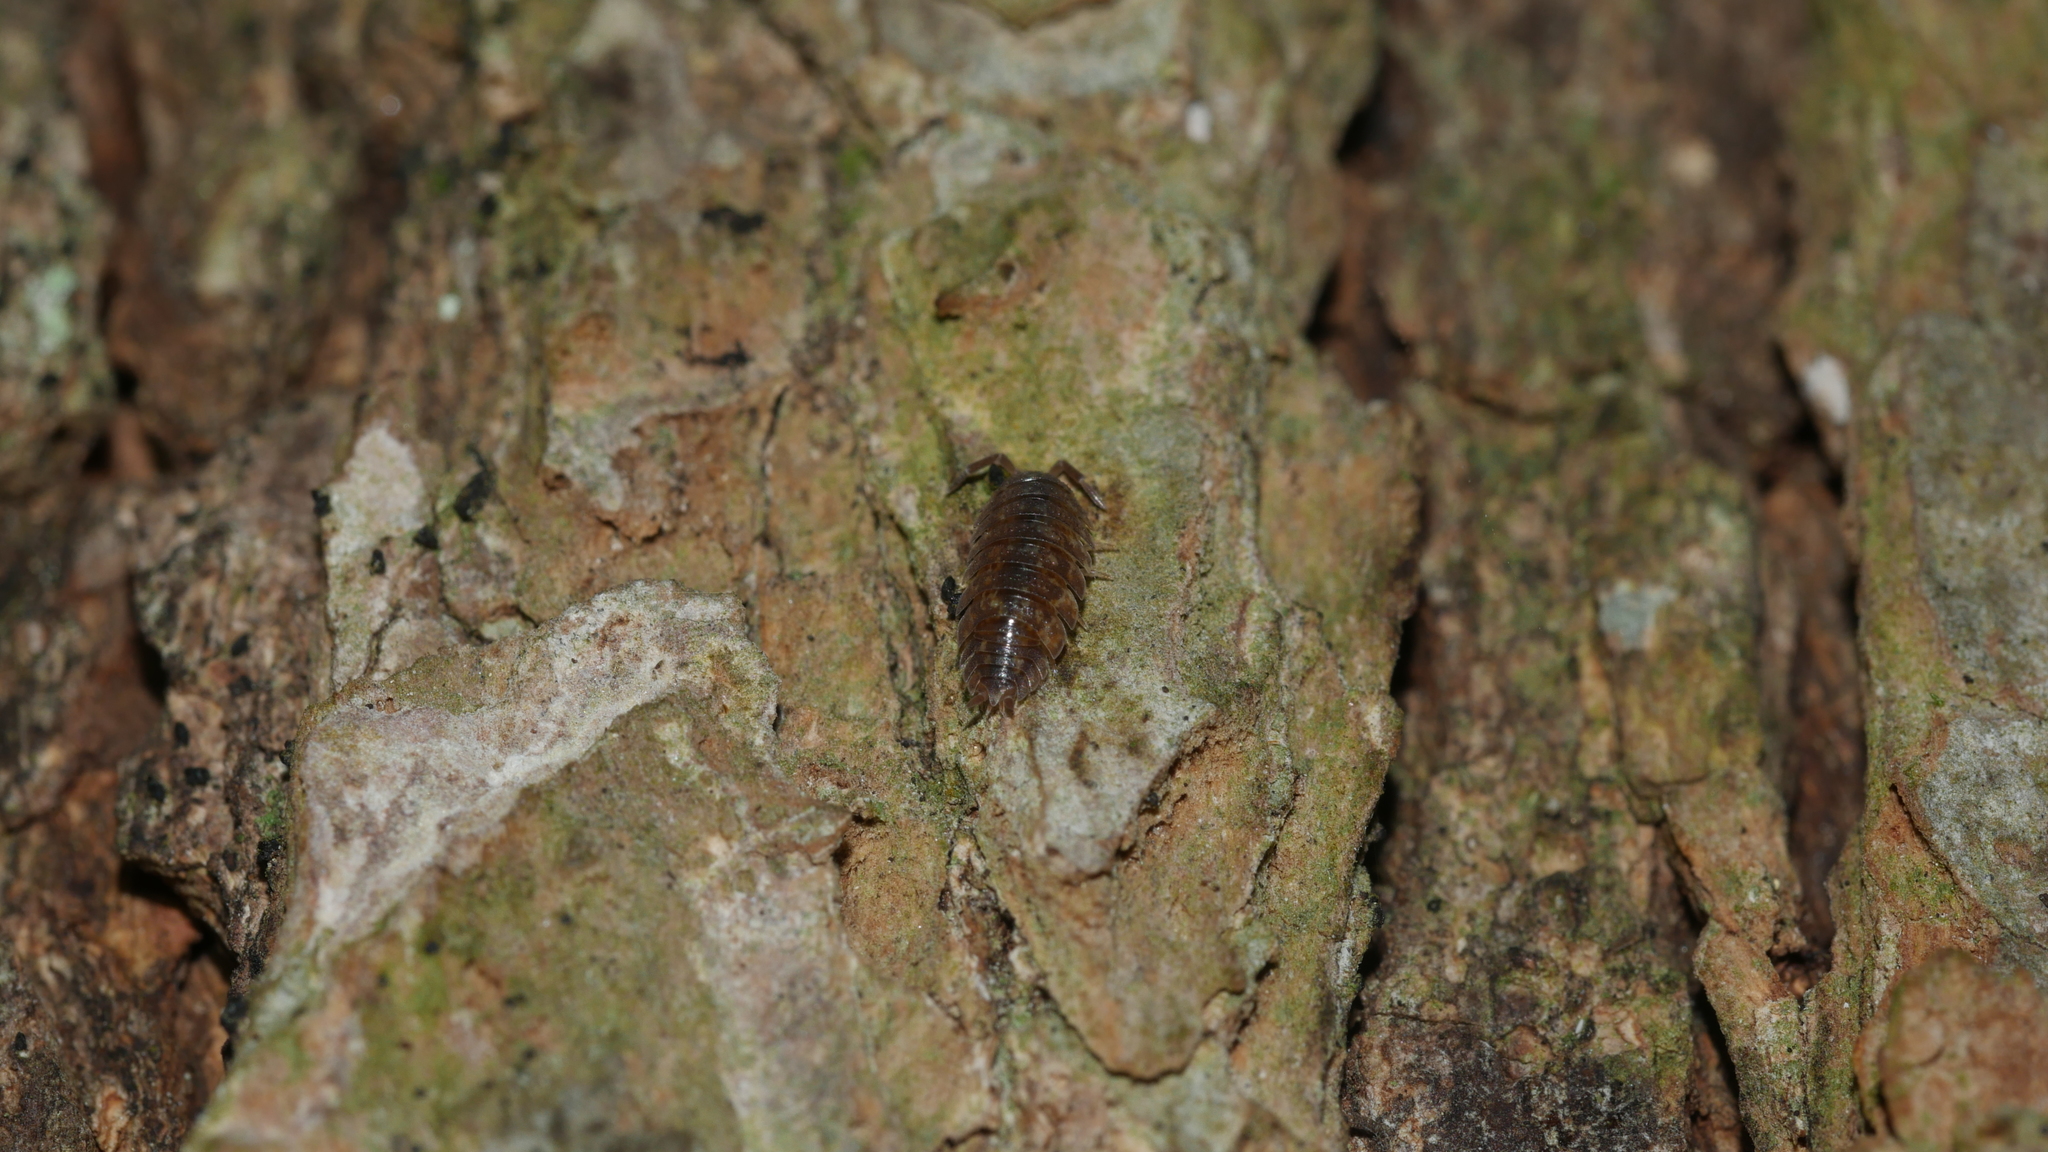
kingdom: Animalia
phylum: Arthropoda
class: Malacostraca
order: Isopoda
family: Porcellionidae
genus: Porcellio
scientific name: Porcellio scaber
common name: Common rough woodlouse
